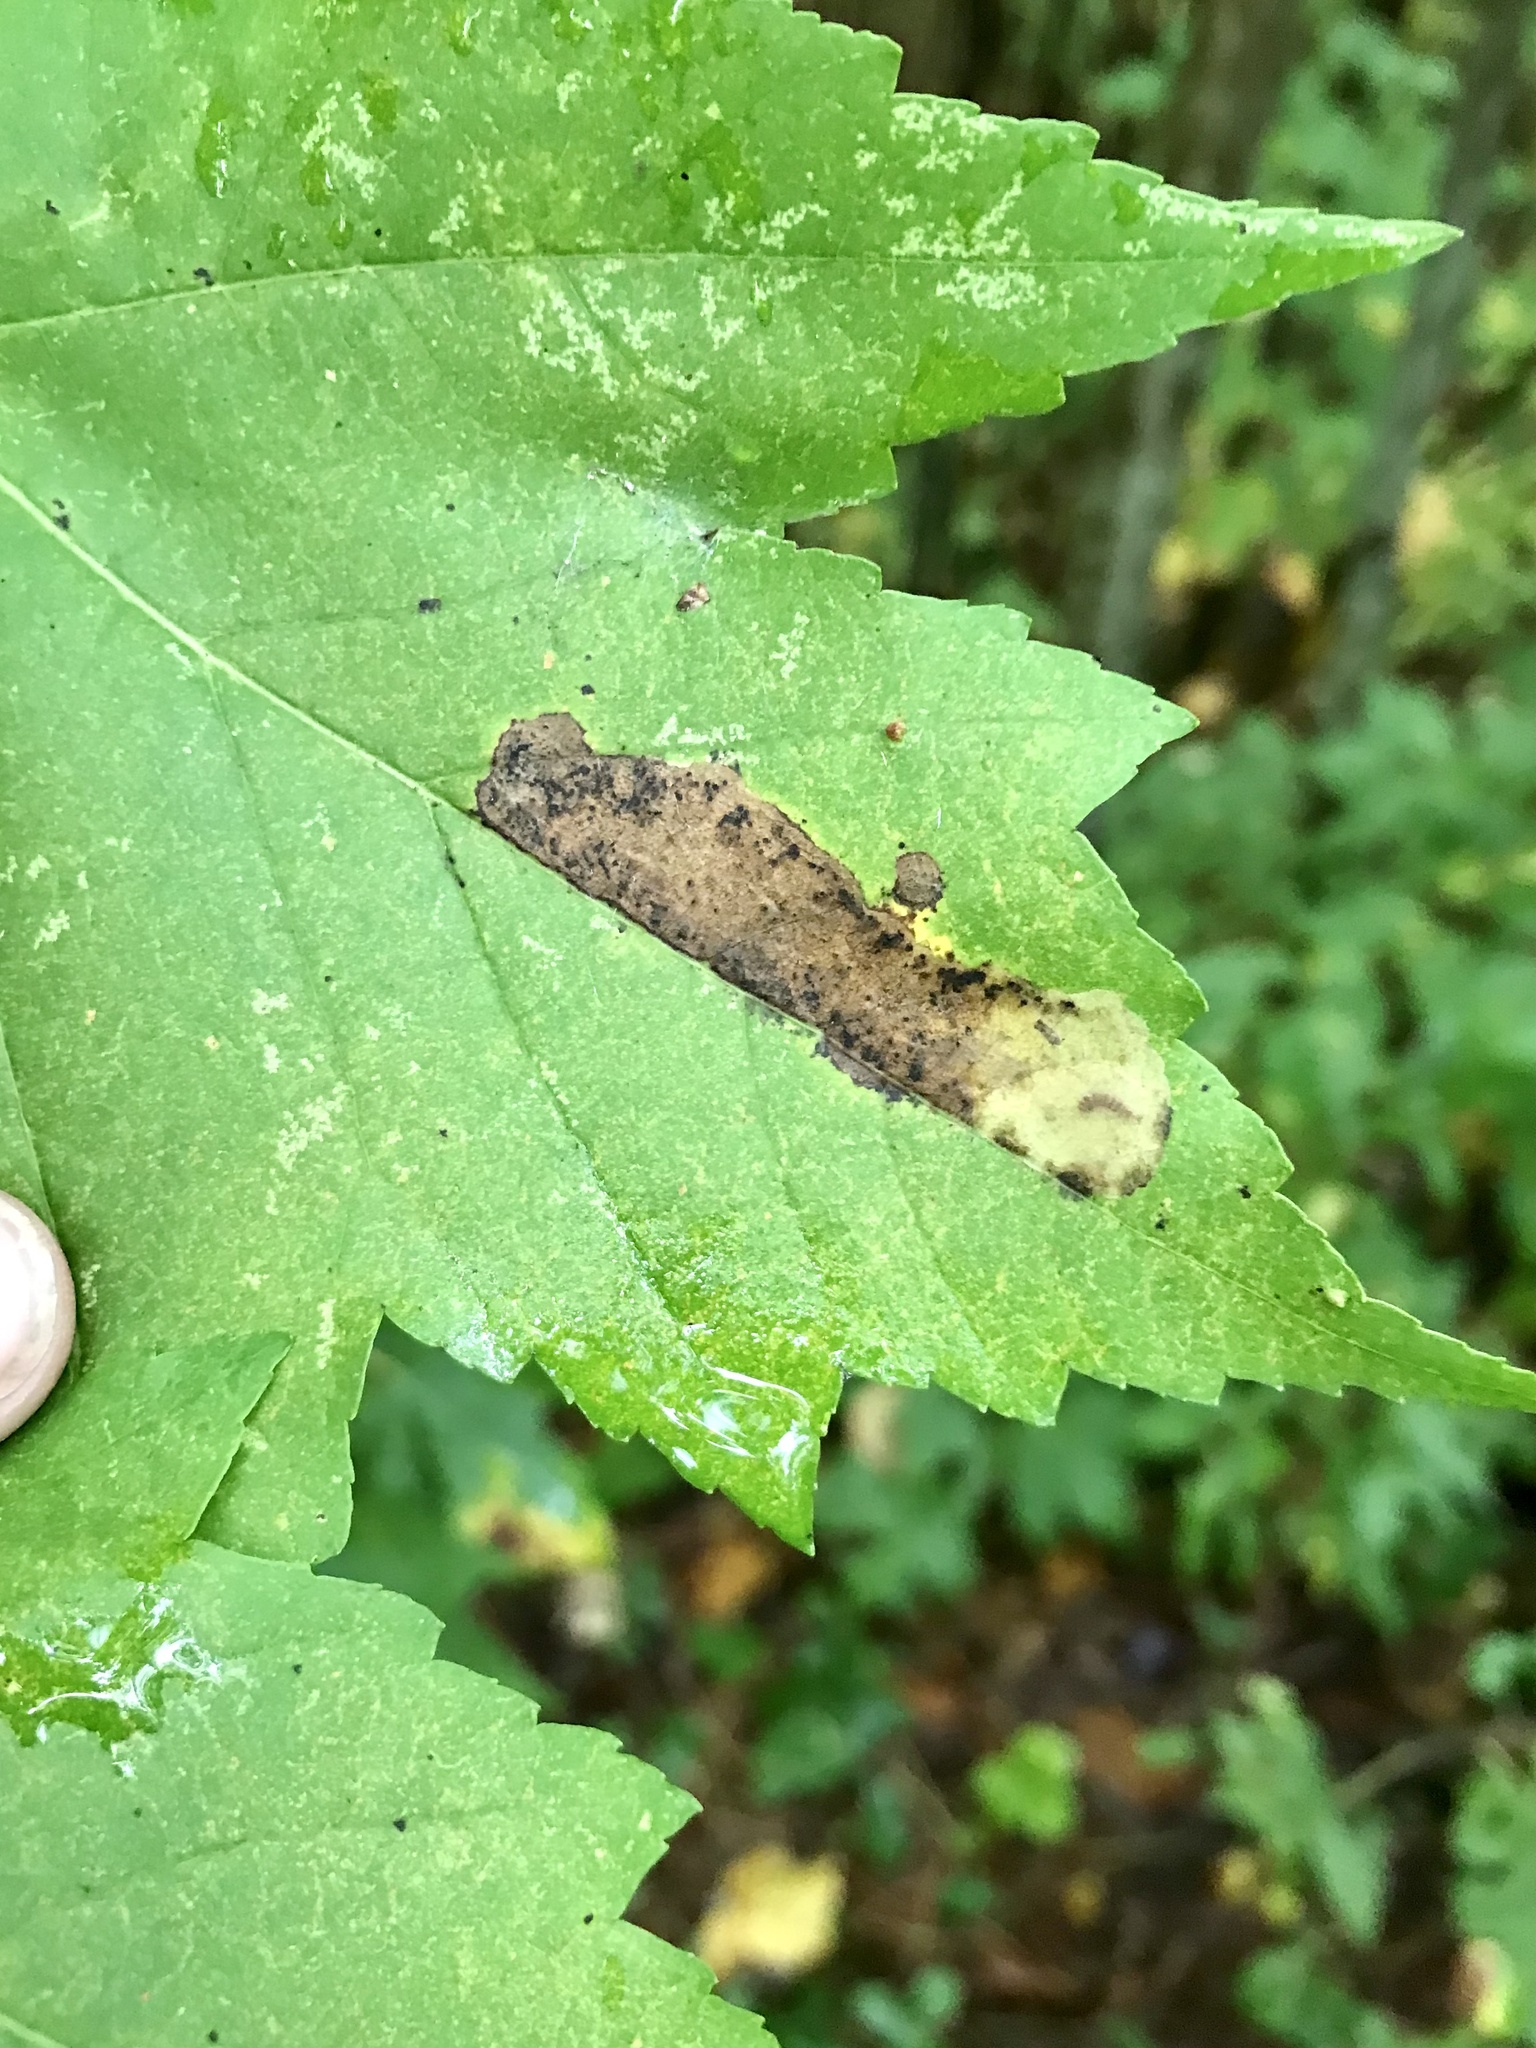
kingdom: Animalia
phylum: Arthropoda
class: Insecta
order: Lepidoptera
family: Gracillariidae
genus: Cameraria
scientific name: Cameraria aceriella
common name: Maple leafblotch miner
